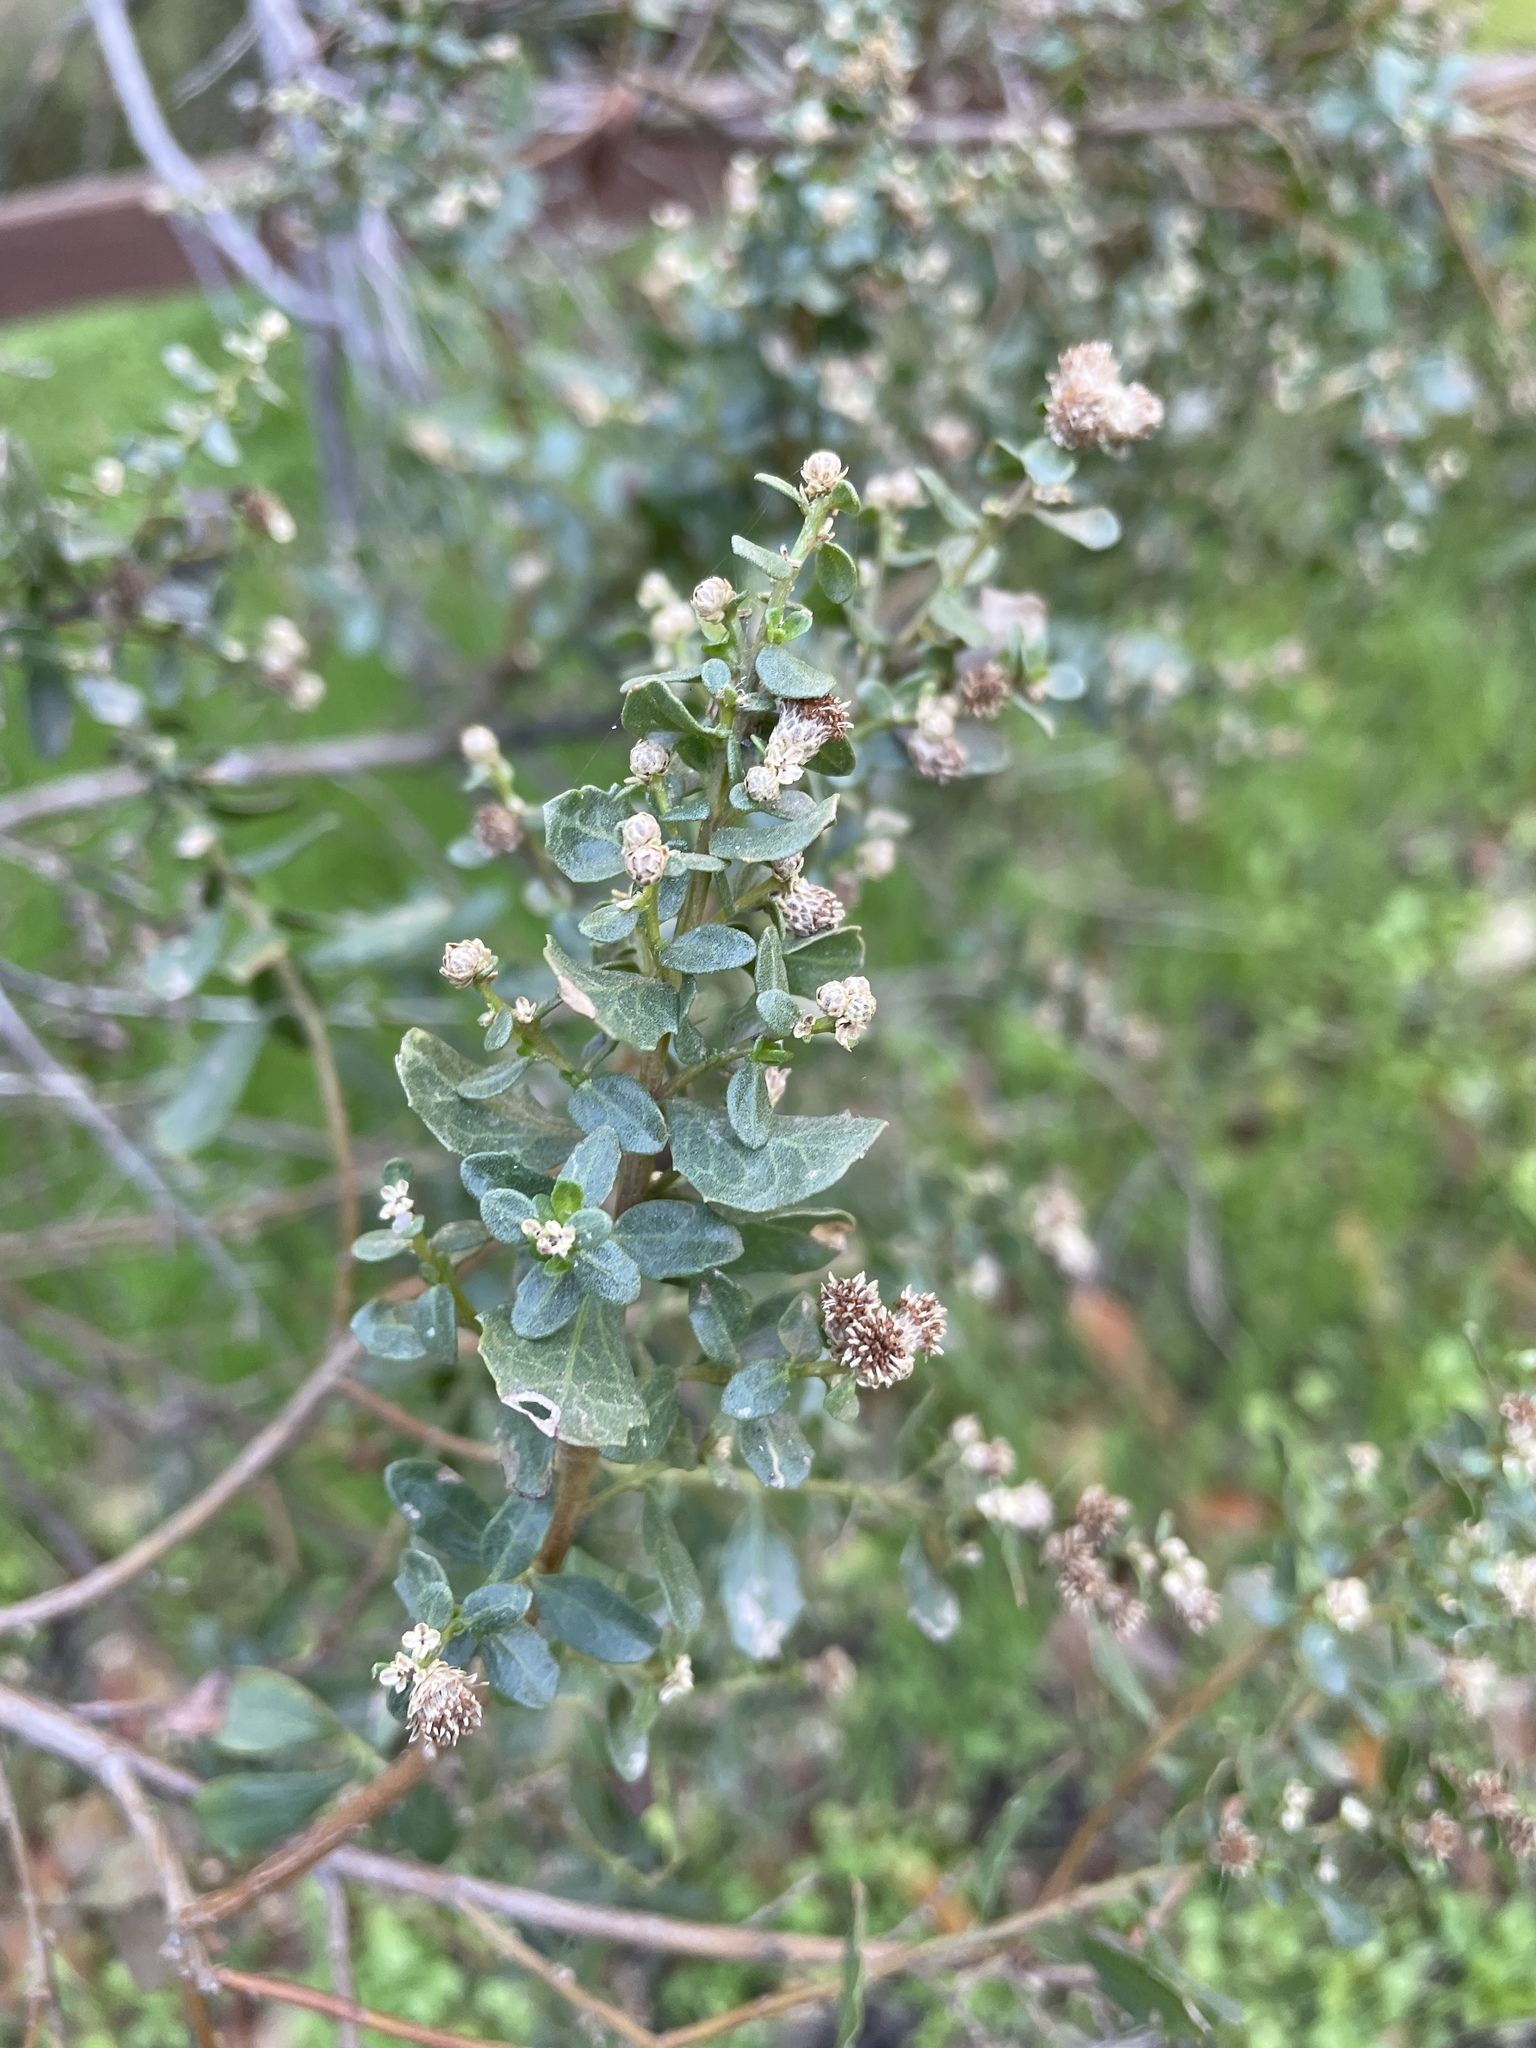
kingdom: Plantae
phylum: Tracheophyta
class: Magnoliopsida
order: Asterales
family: Asteraceae
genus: Baccharis
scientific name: Baccharis pilularis
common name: Coyotebrush
